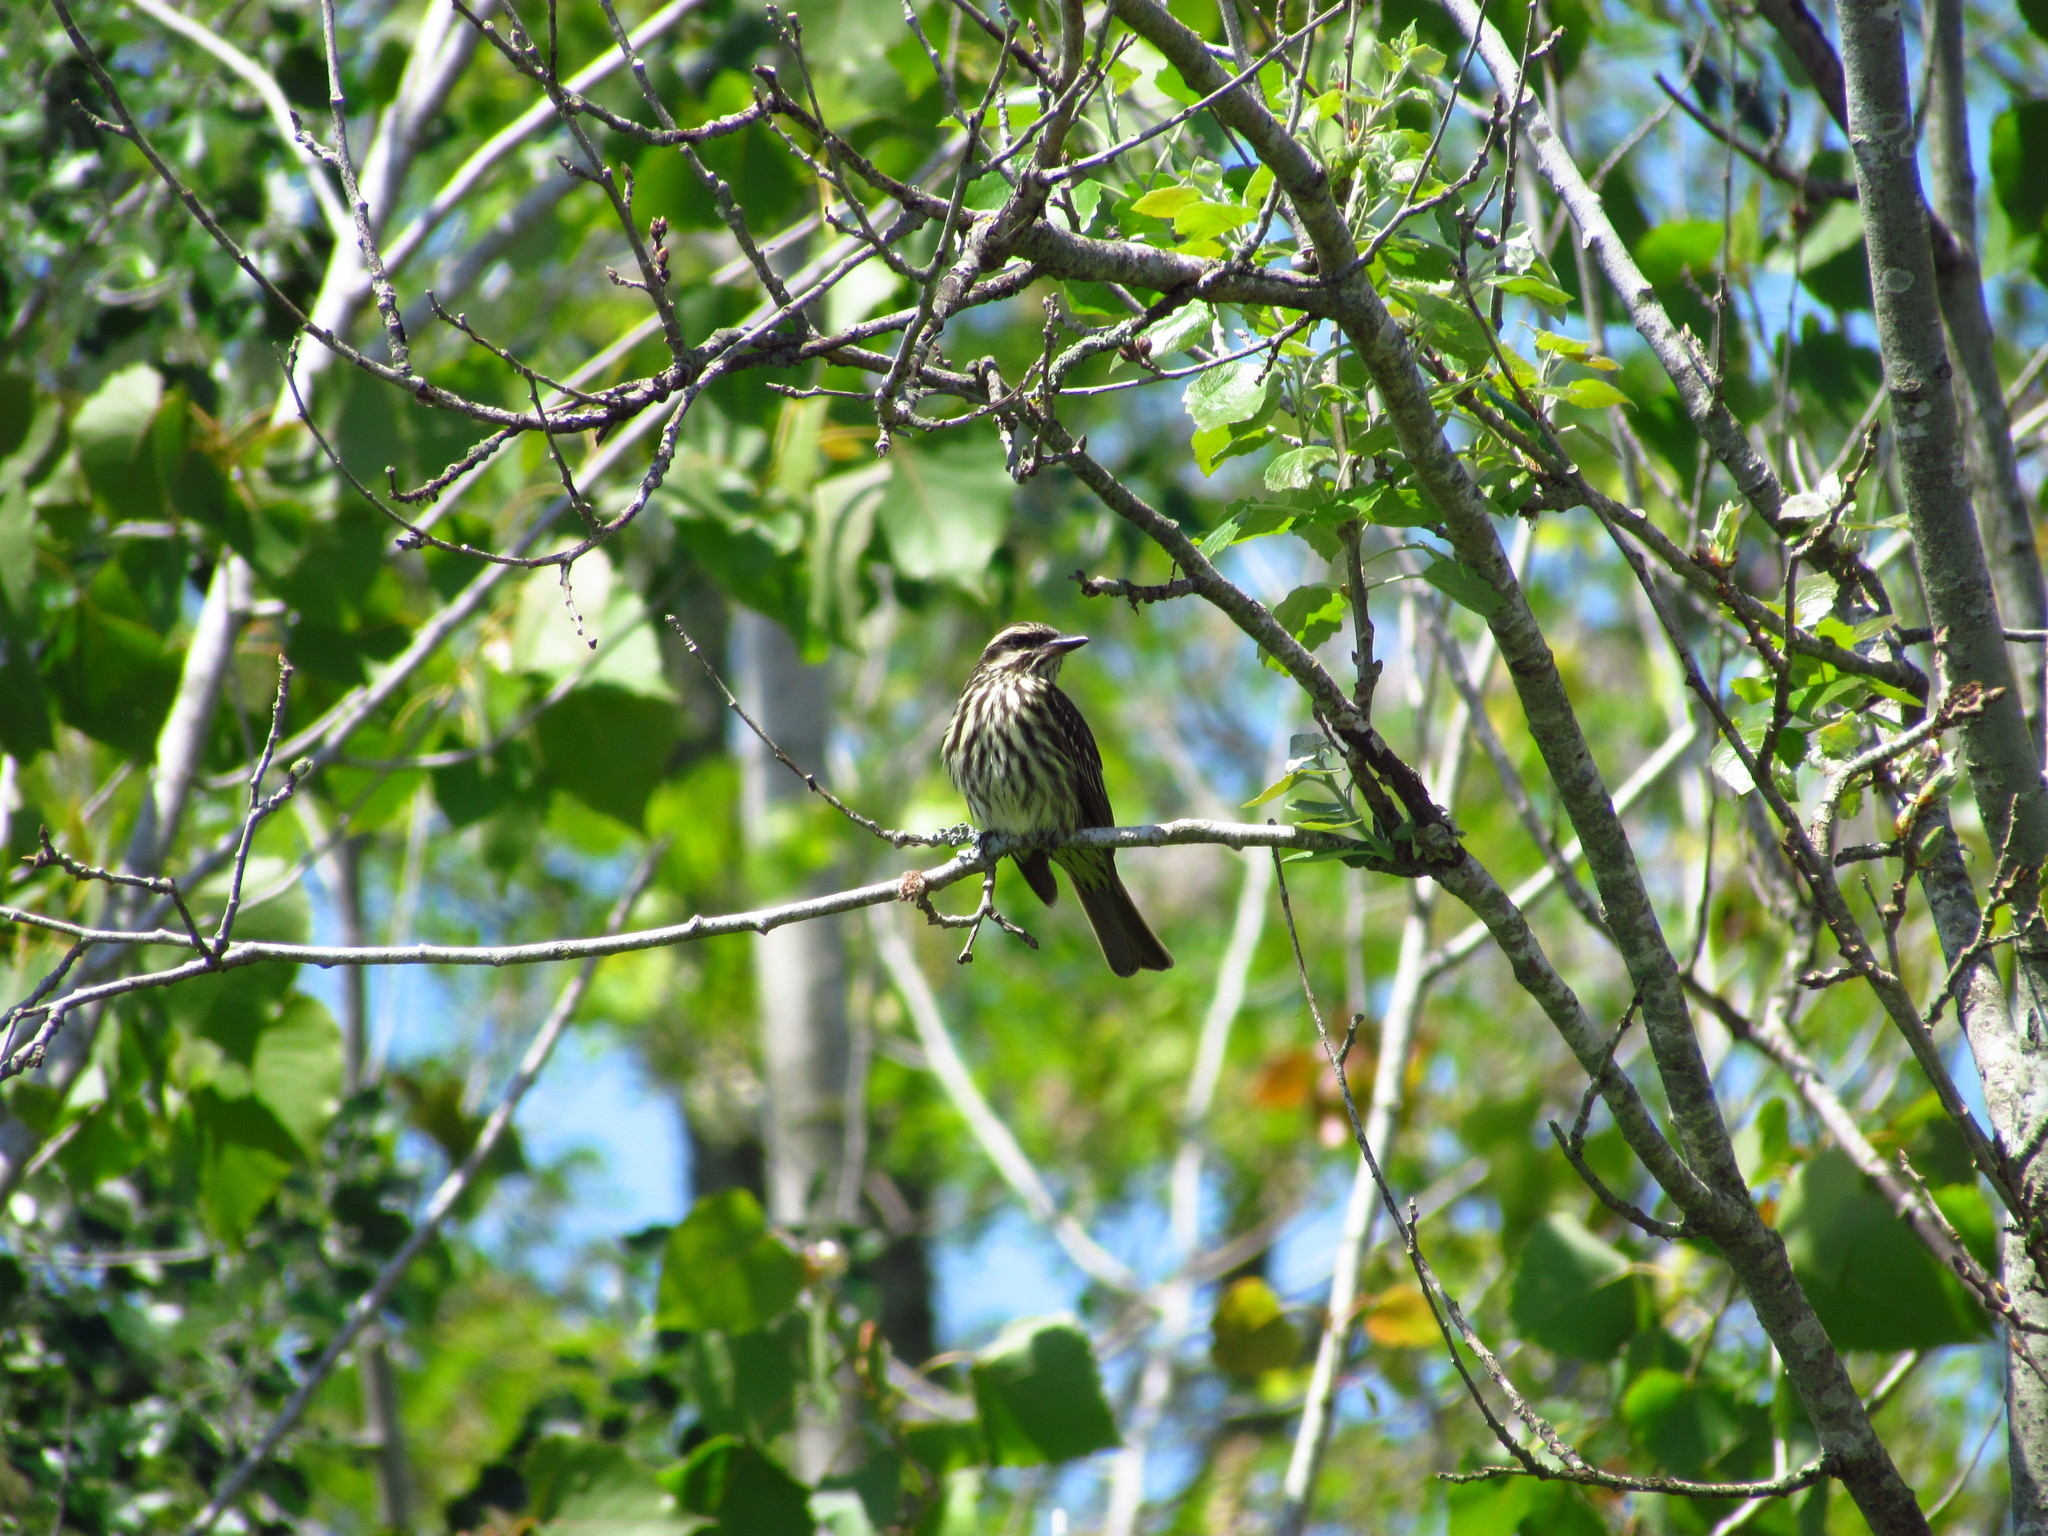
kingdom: Animalia
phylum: Chordata
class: Aves
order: Passeriformes
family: Tyrannidae
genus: Myiodynastes
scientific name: Myiodynastes maculatus
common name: Streaked flycatcher
